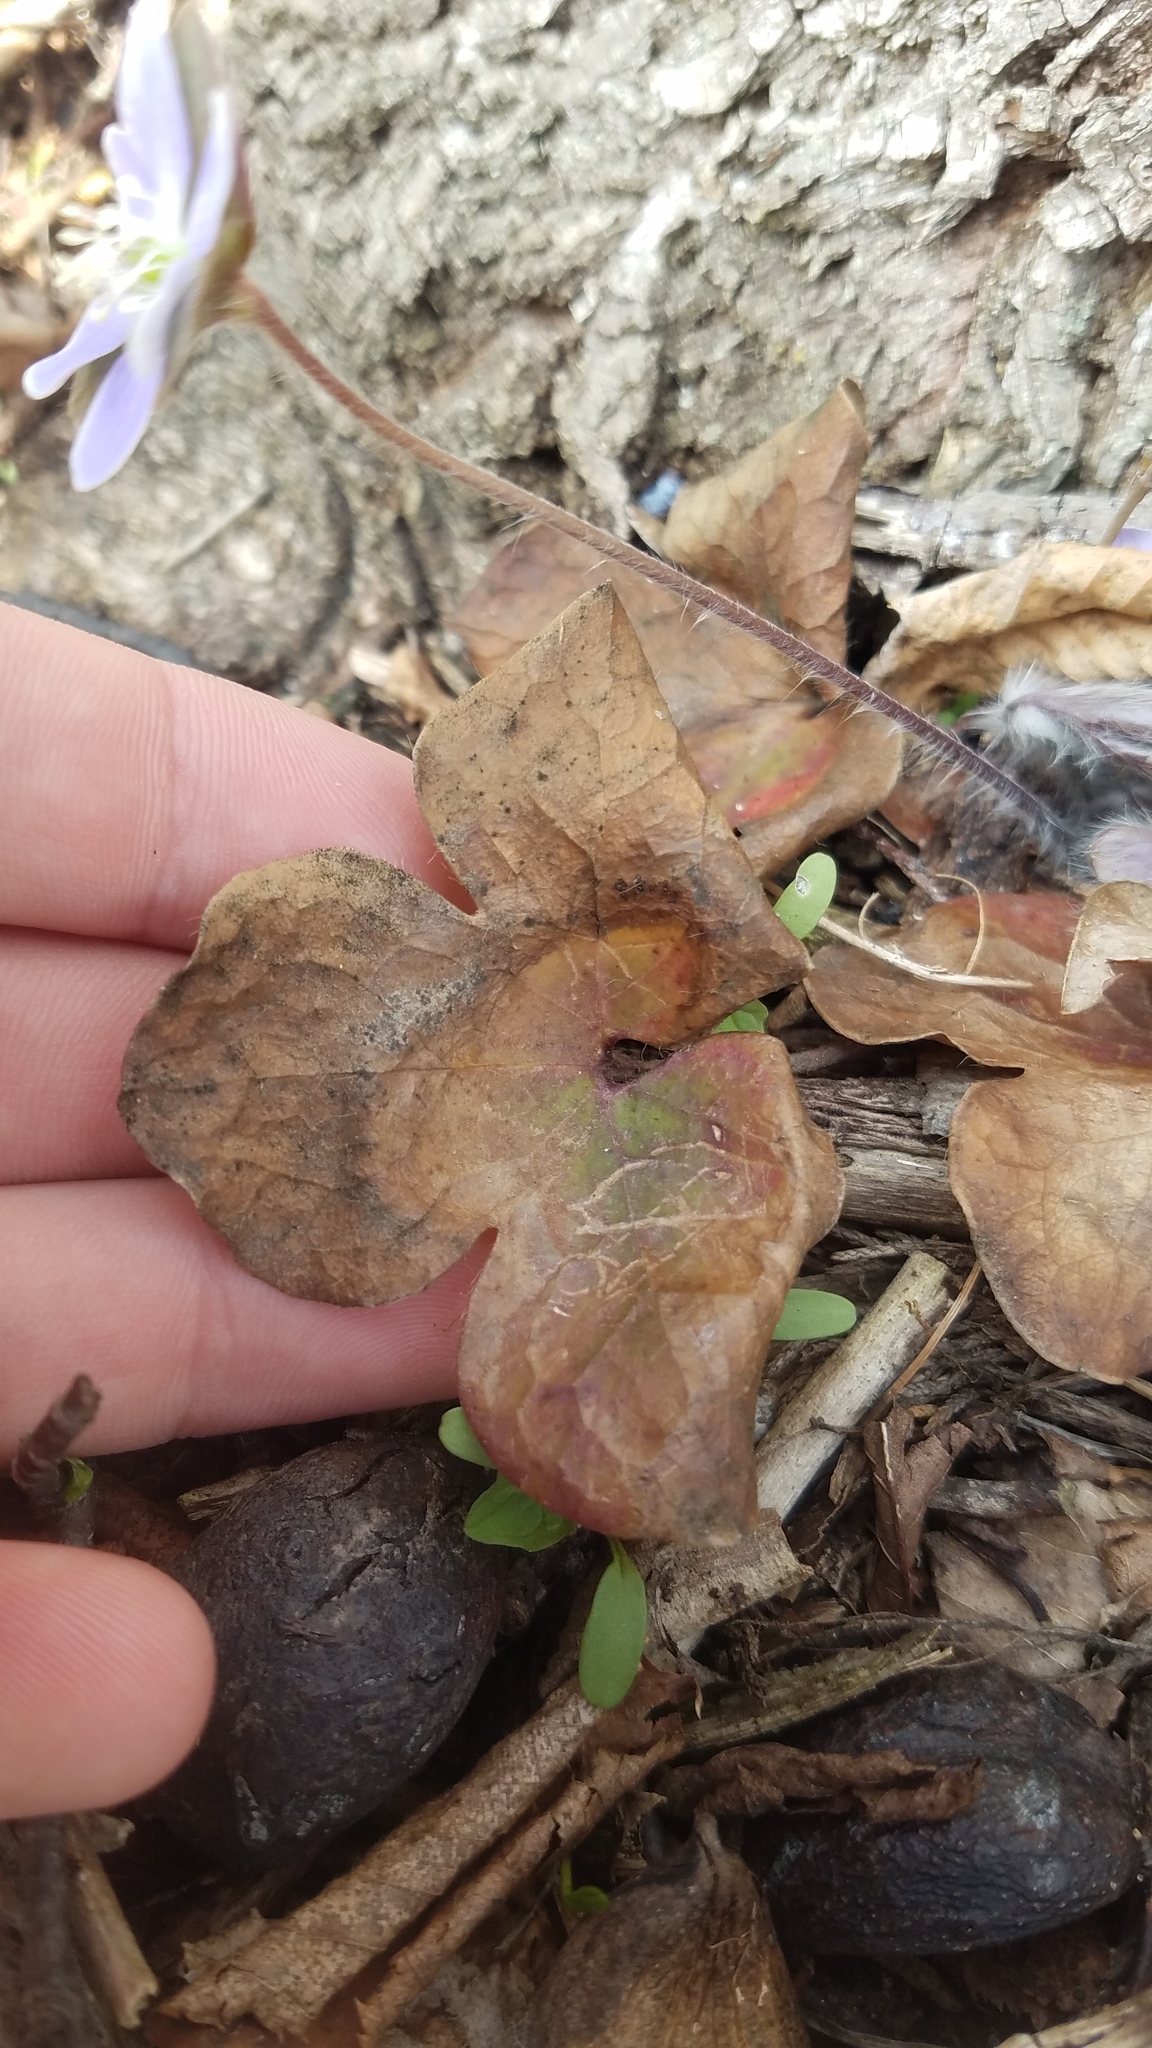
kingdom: Plantae
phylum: Tracheophyta
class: Magnoliopsida
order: Ranunculales
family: Ranunculaceae
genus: Hepatica
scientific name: Hepatica acutiloba
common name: Sharp-lobed hepatica
